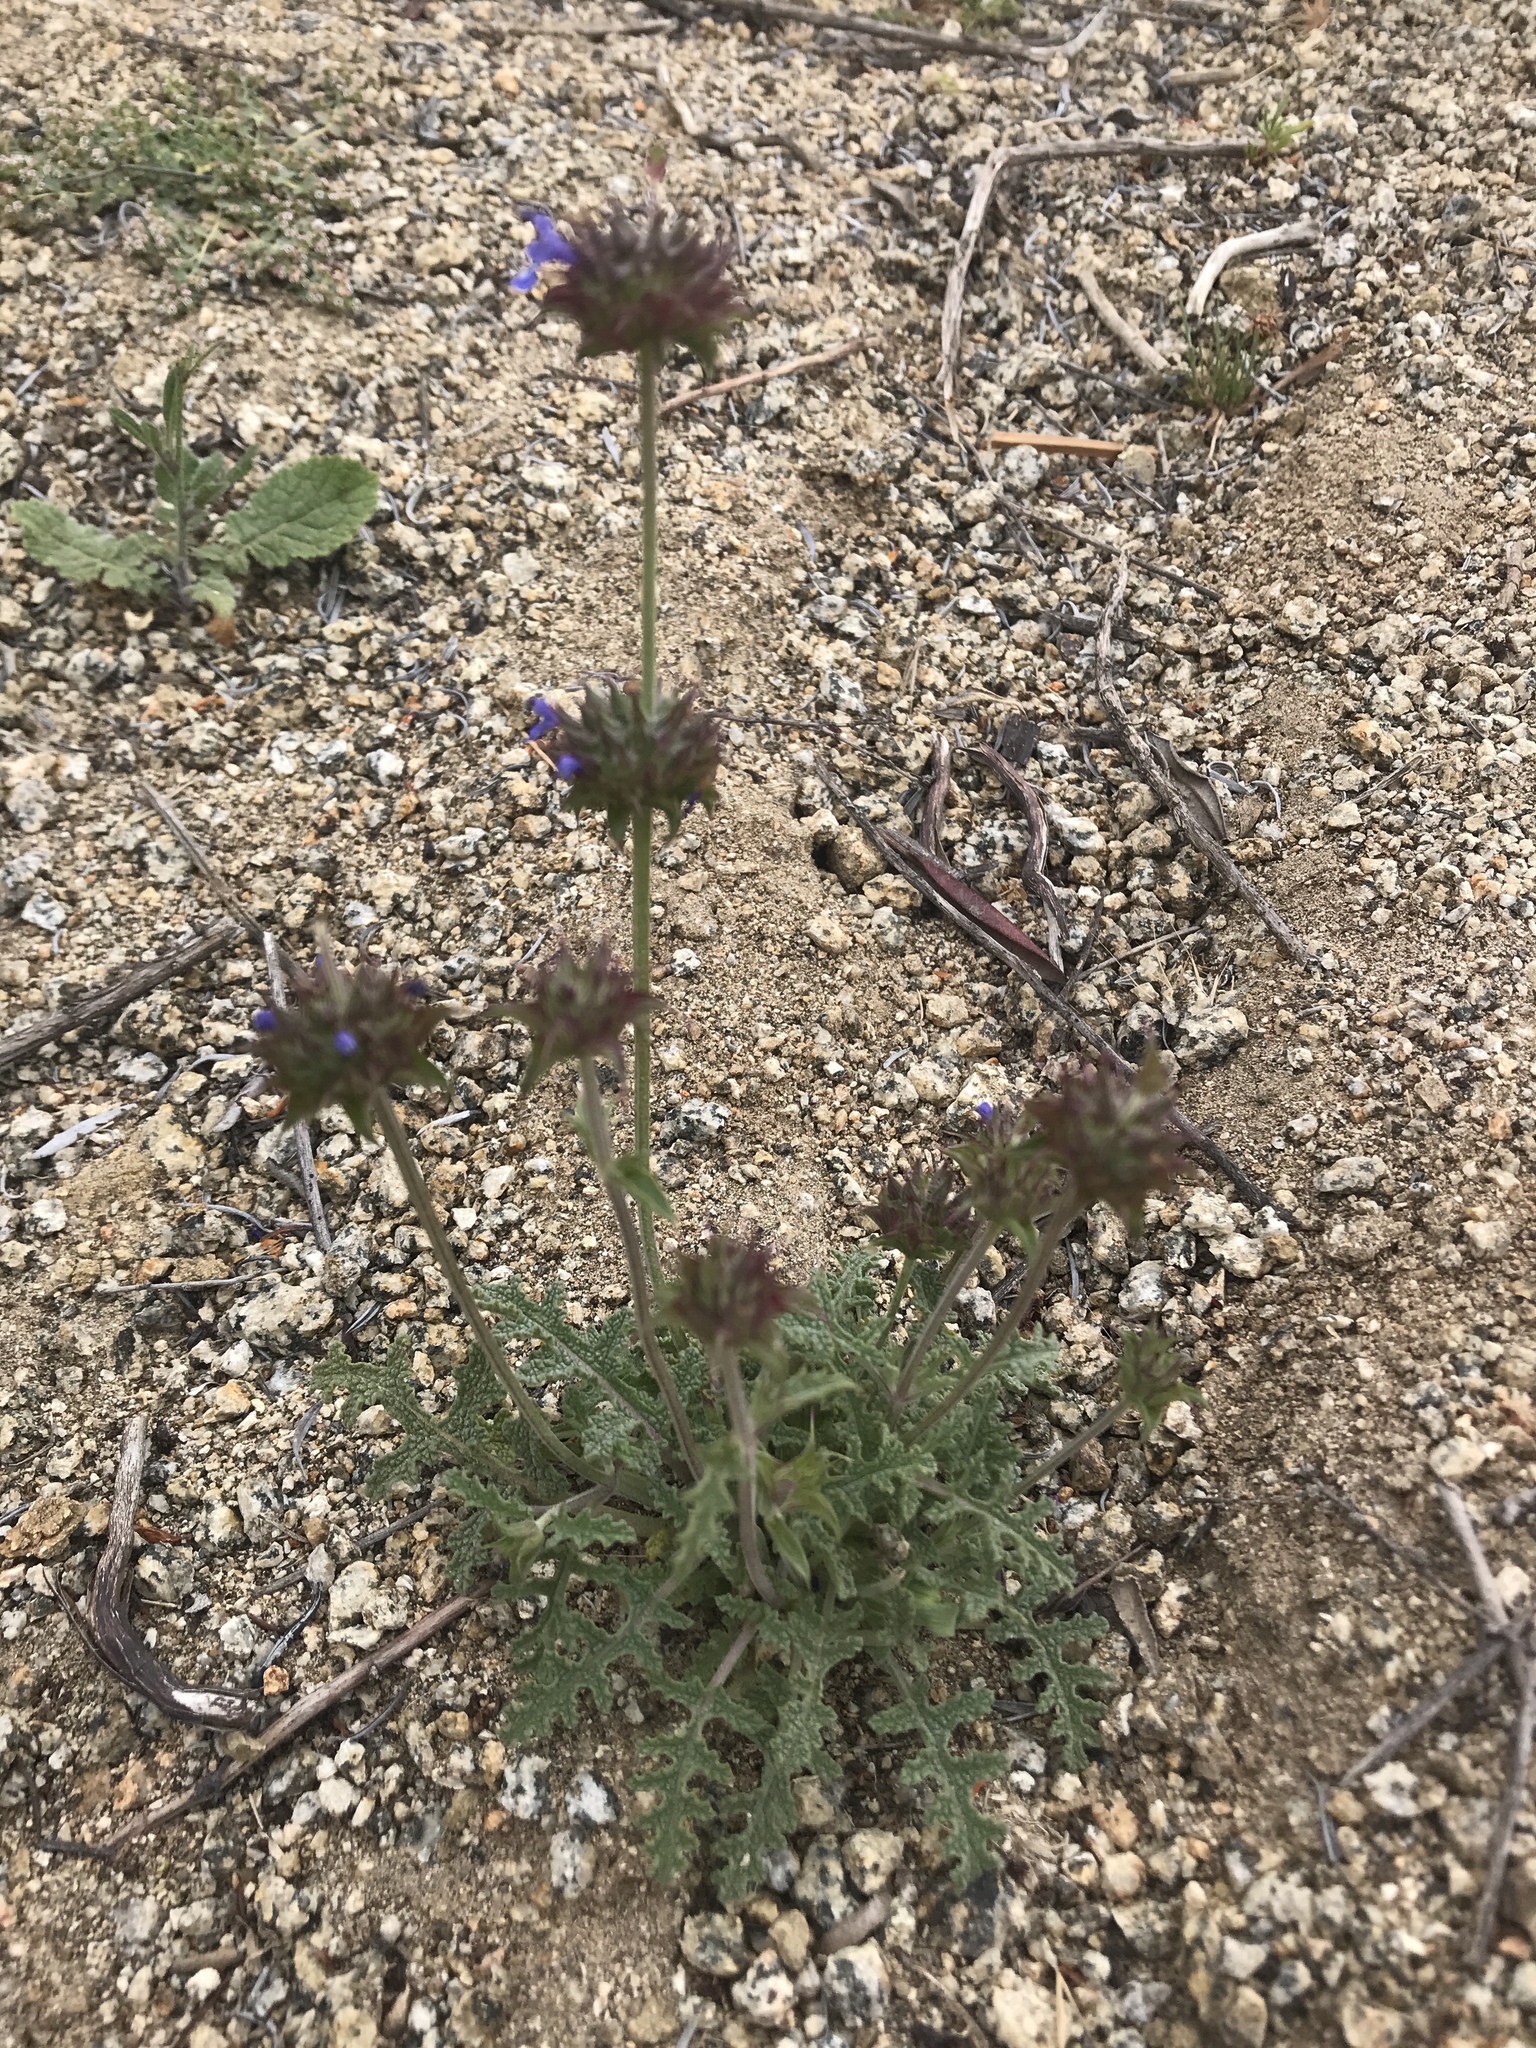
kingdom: Plantae
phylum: Tracheophyta
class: Magnoliopsida
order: Lamiales
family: Lamiaceae
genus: Salvia
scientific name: Salvia columbariae
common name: Chia
